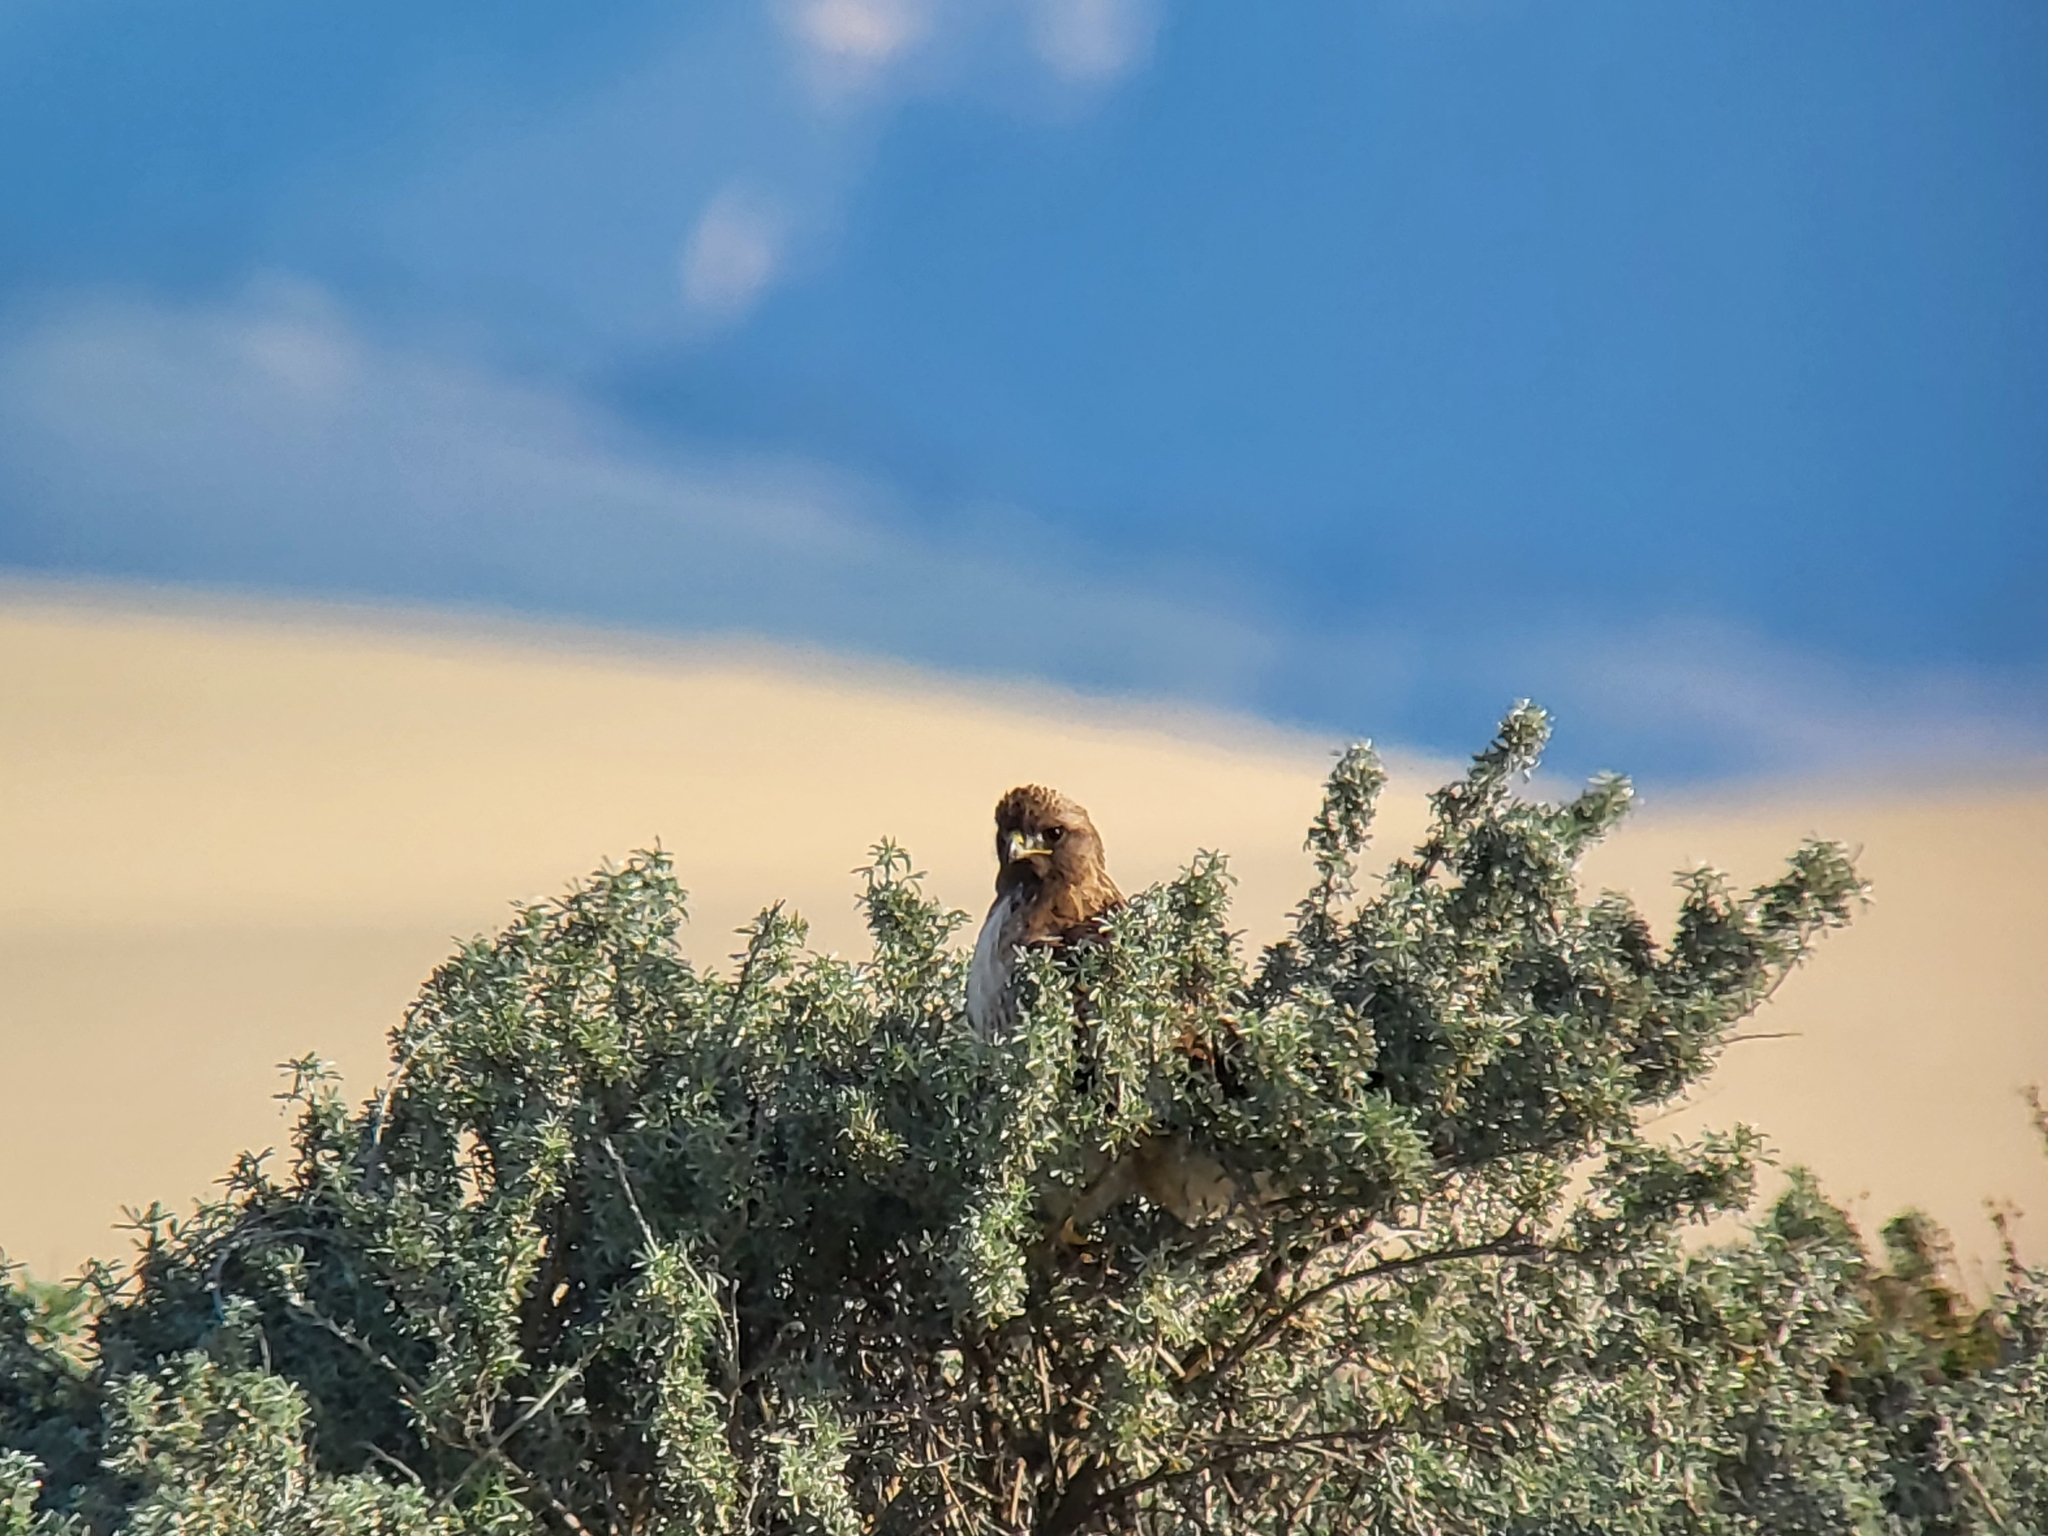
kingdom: Animalia
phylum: Chordata
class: Aves
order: Accipitriformes
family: Accipitridae
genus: Buteo
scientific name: Buteo jamaicensis
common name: Red-tailed hawk
